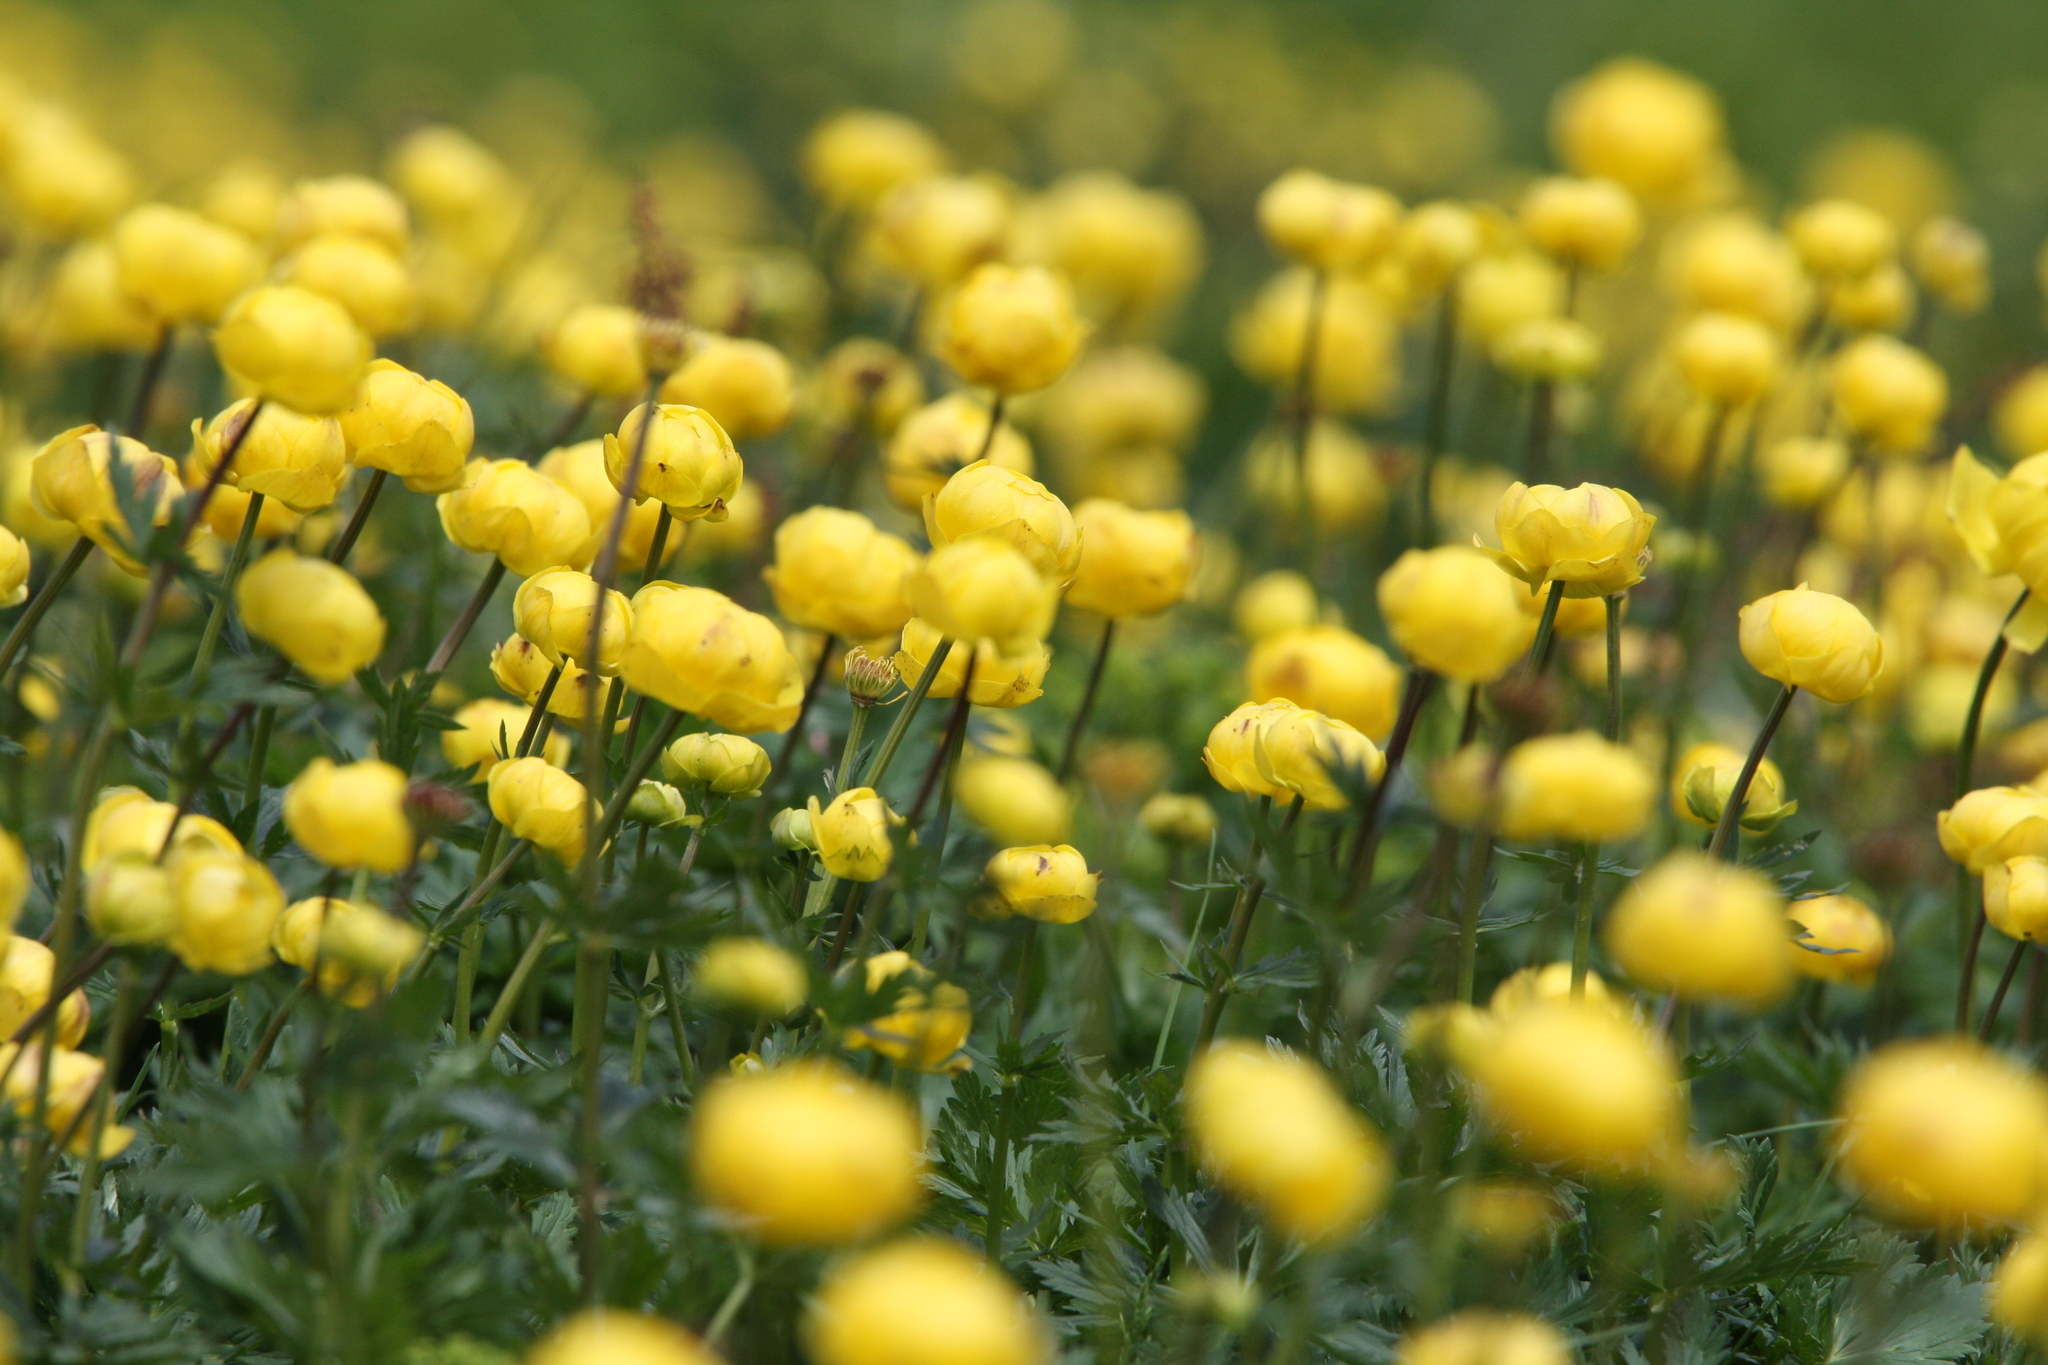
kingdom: Plantae
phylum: Tracheophyta
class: Magnoliopsida
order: Ranunculales
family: Ranunculaceae
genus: Trollius
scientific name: Trollius europaeus
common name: European globeflower
